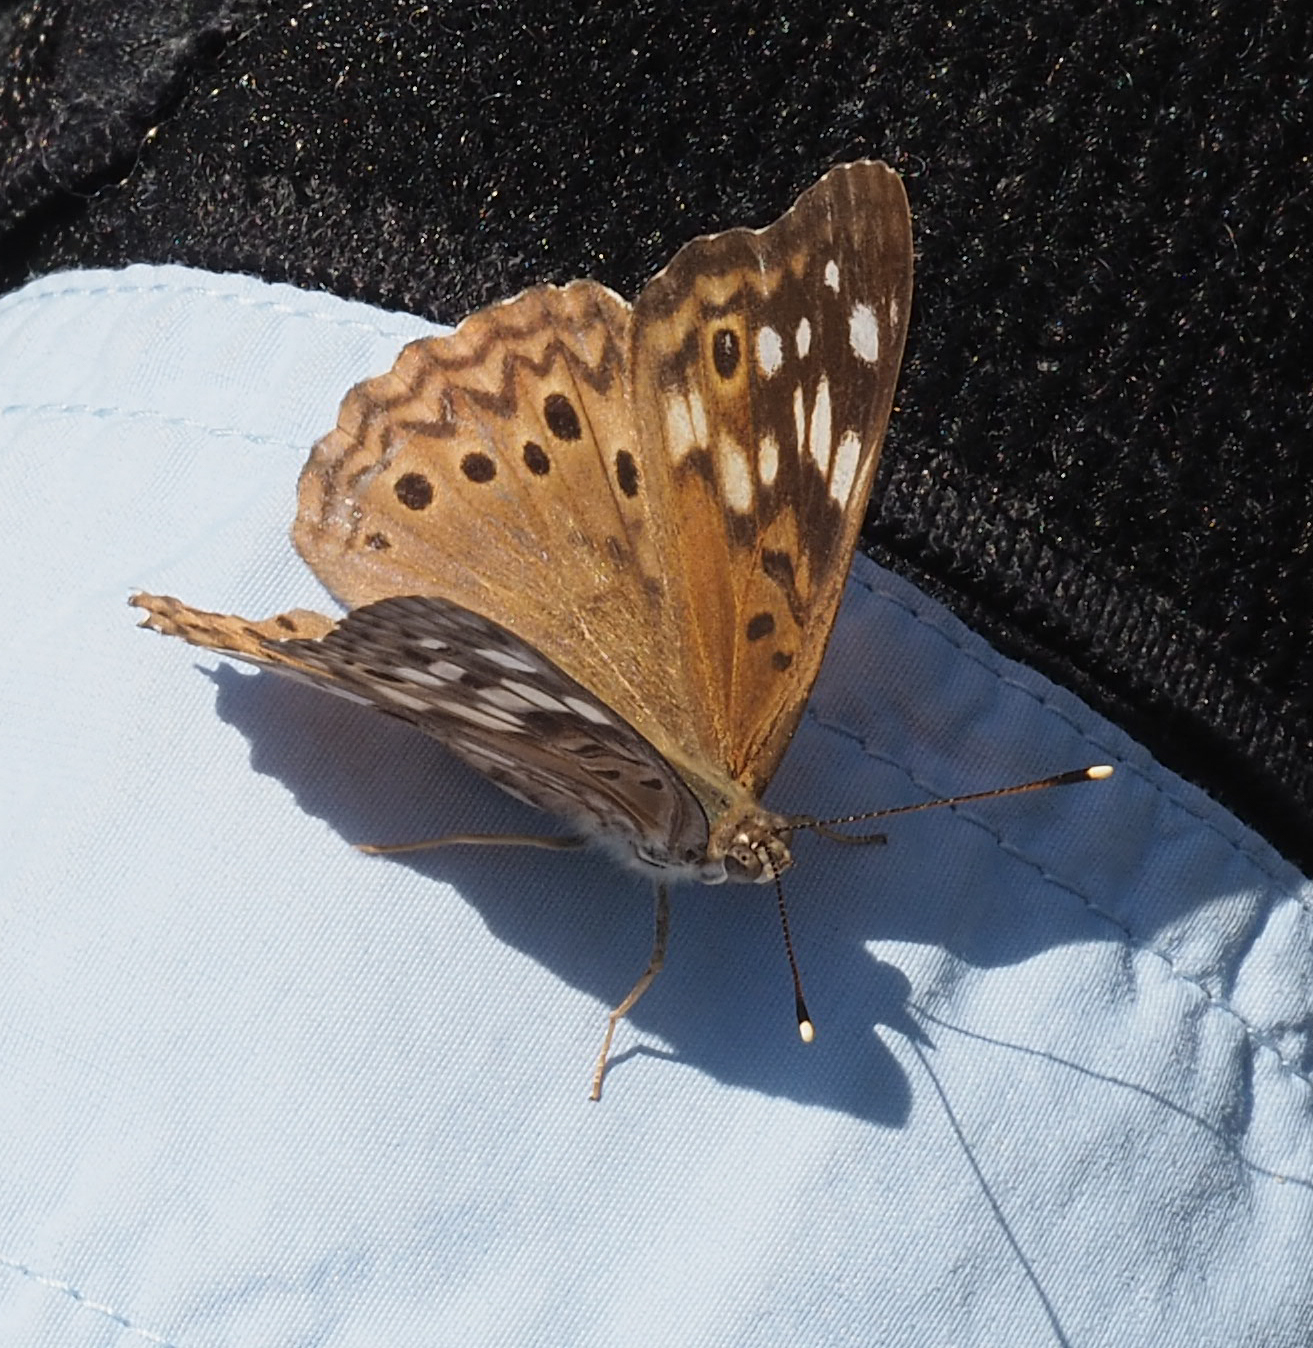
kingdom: Animalia
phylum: Arthropoda
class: Insecta
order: Lepidoptera
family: Nymphalidae
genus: Asterocampa
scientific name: Asterocampa celtis
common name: Hackberry emperor
